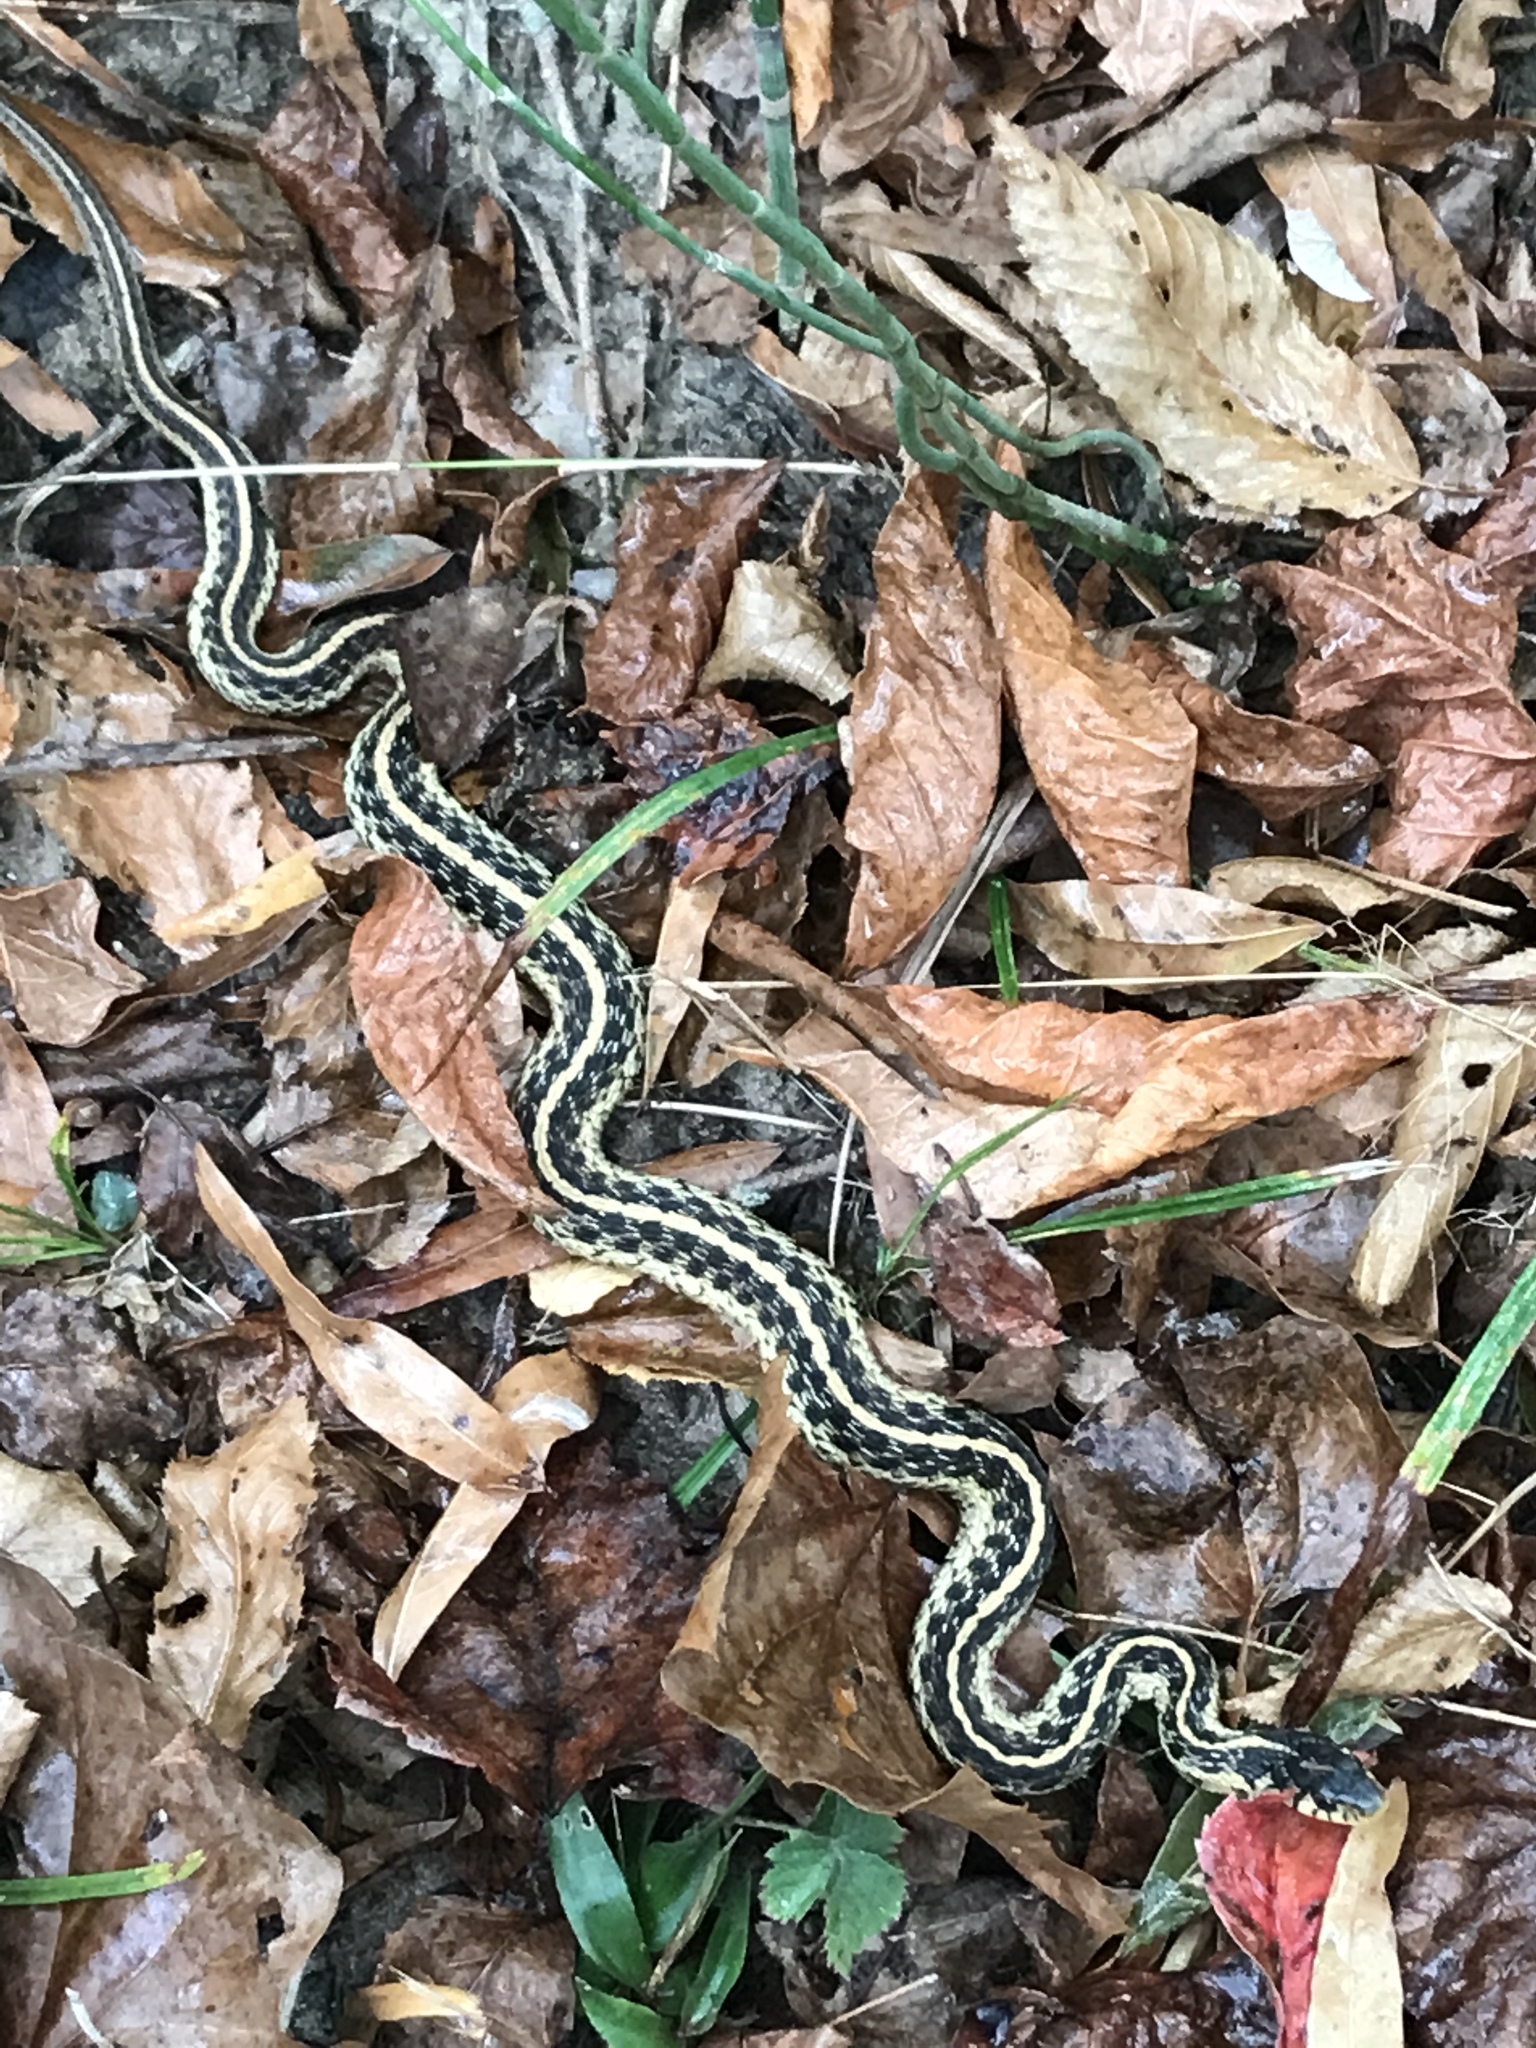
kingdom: Animalia
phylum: Chordata
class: Squamata
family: Colubridae
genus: Thamnophis
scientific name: Thamnophis sirtalis
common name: Common garter snake
